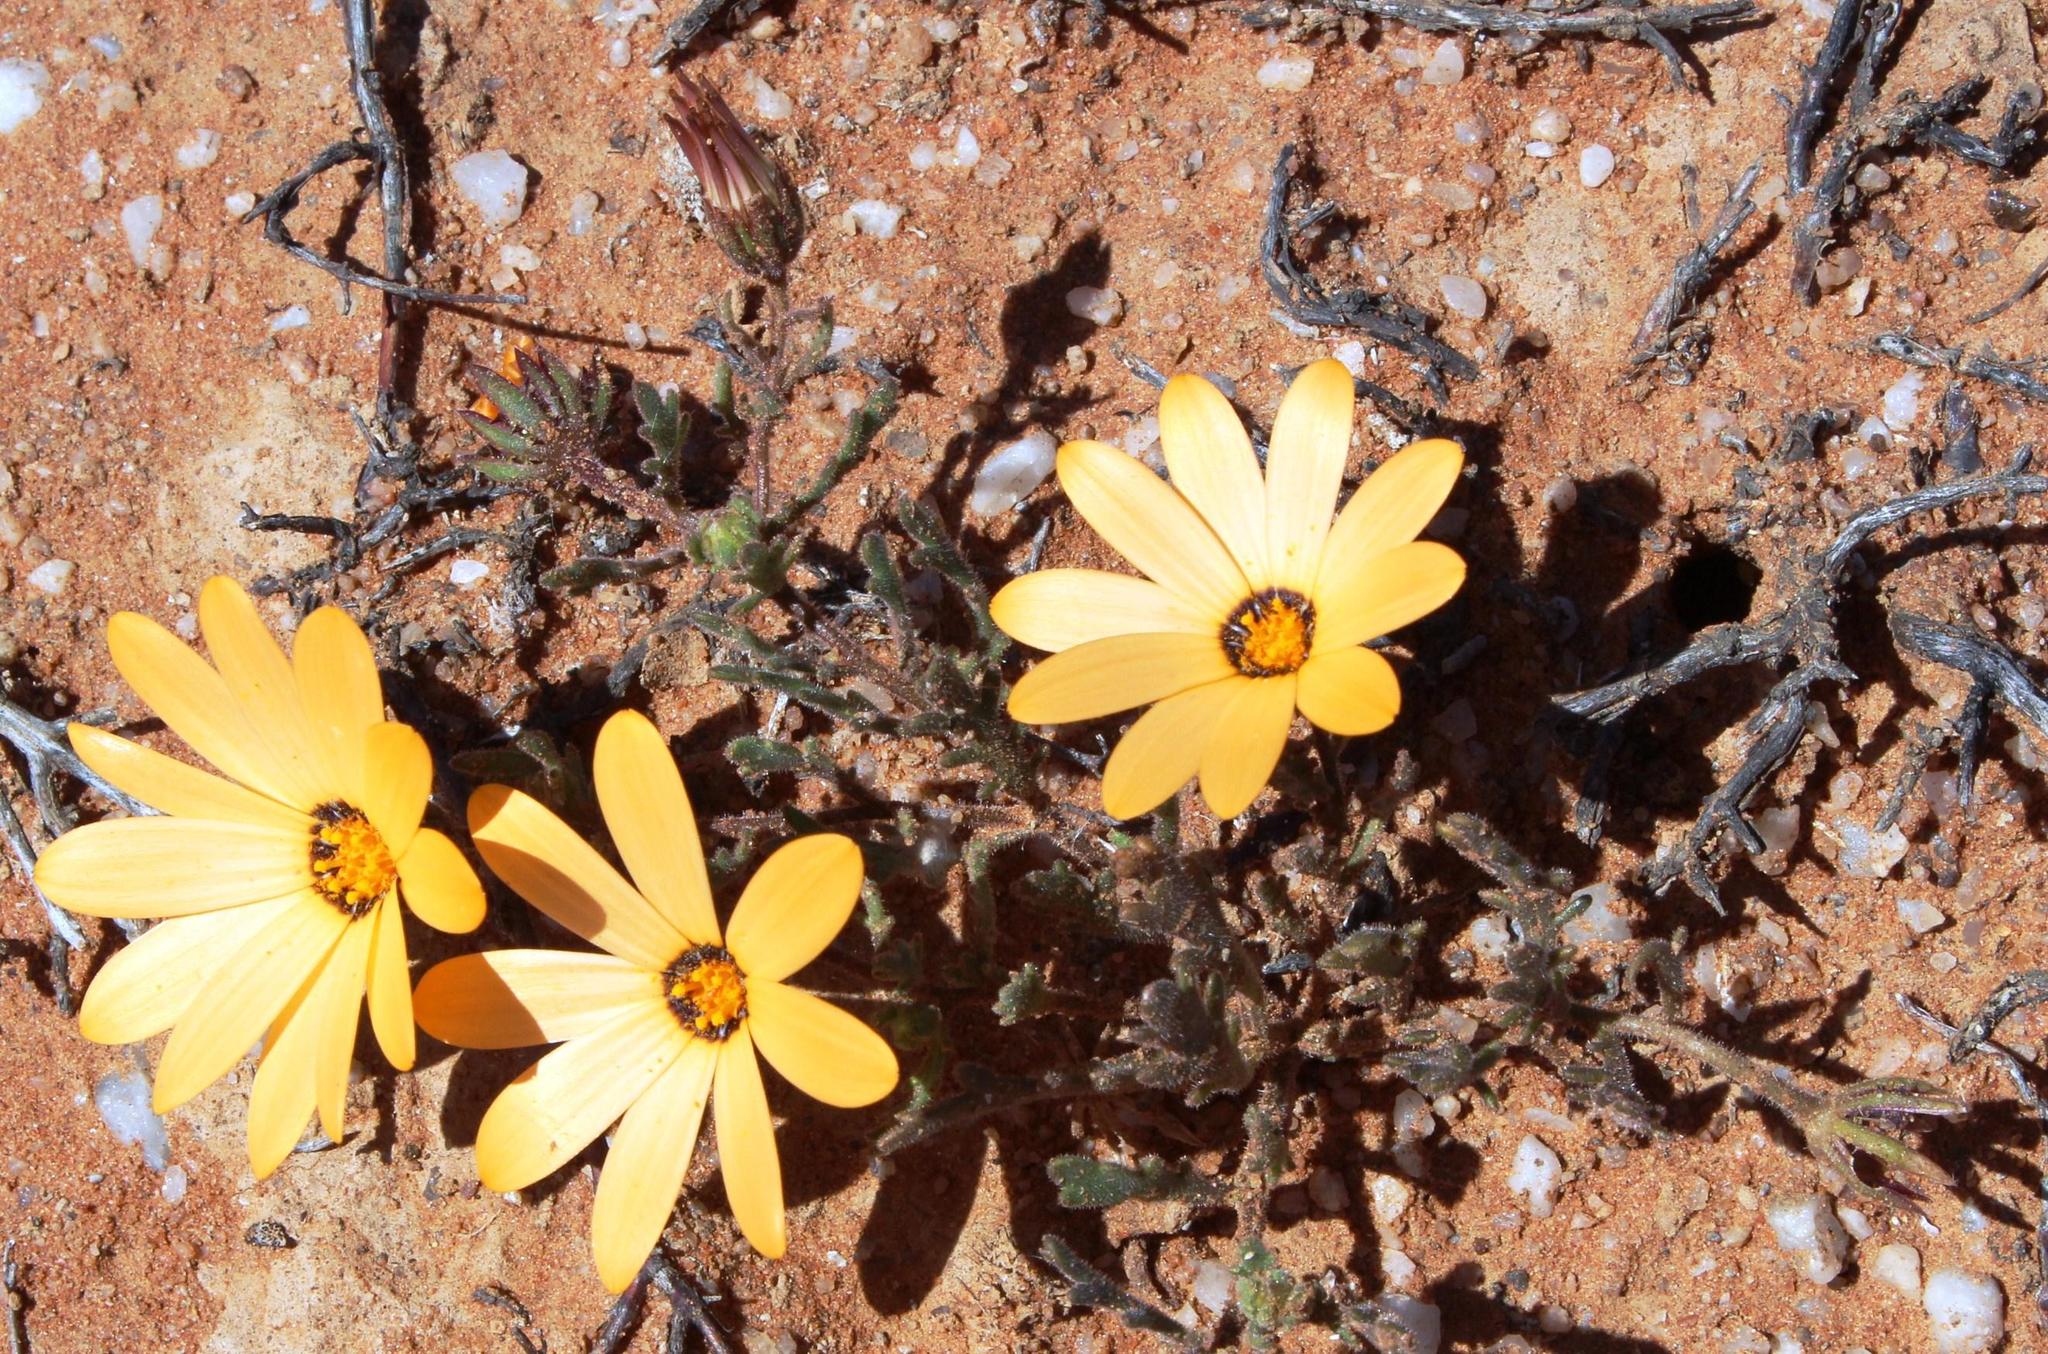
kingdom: Plantae
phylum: Tracheophyta
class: Magnoliopsida
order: Asterales
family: Asteraceae
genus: Dimorphotheca
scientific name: Dimorphotheca pinnata
